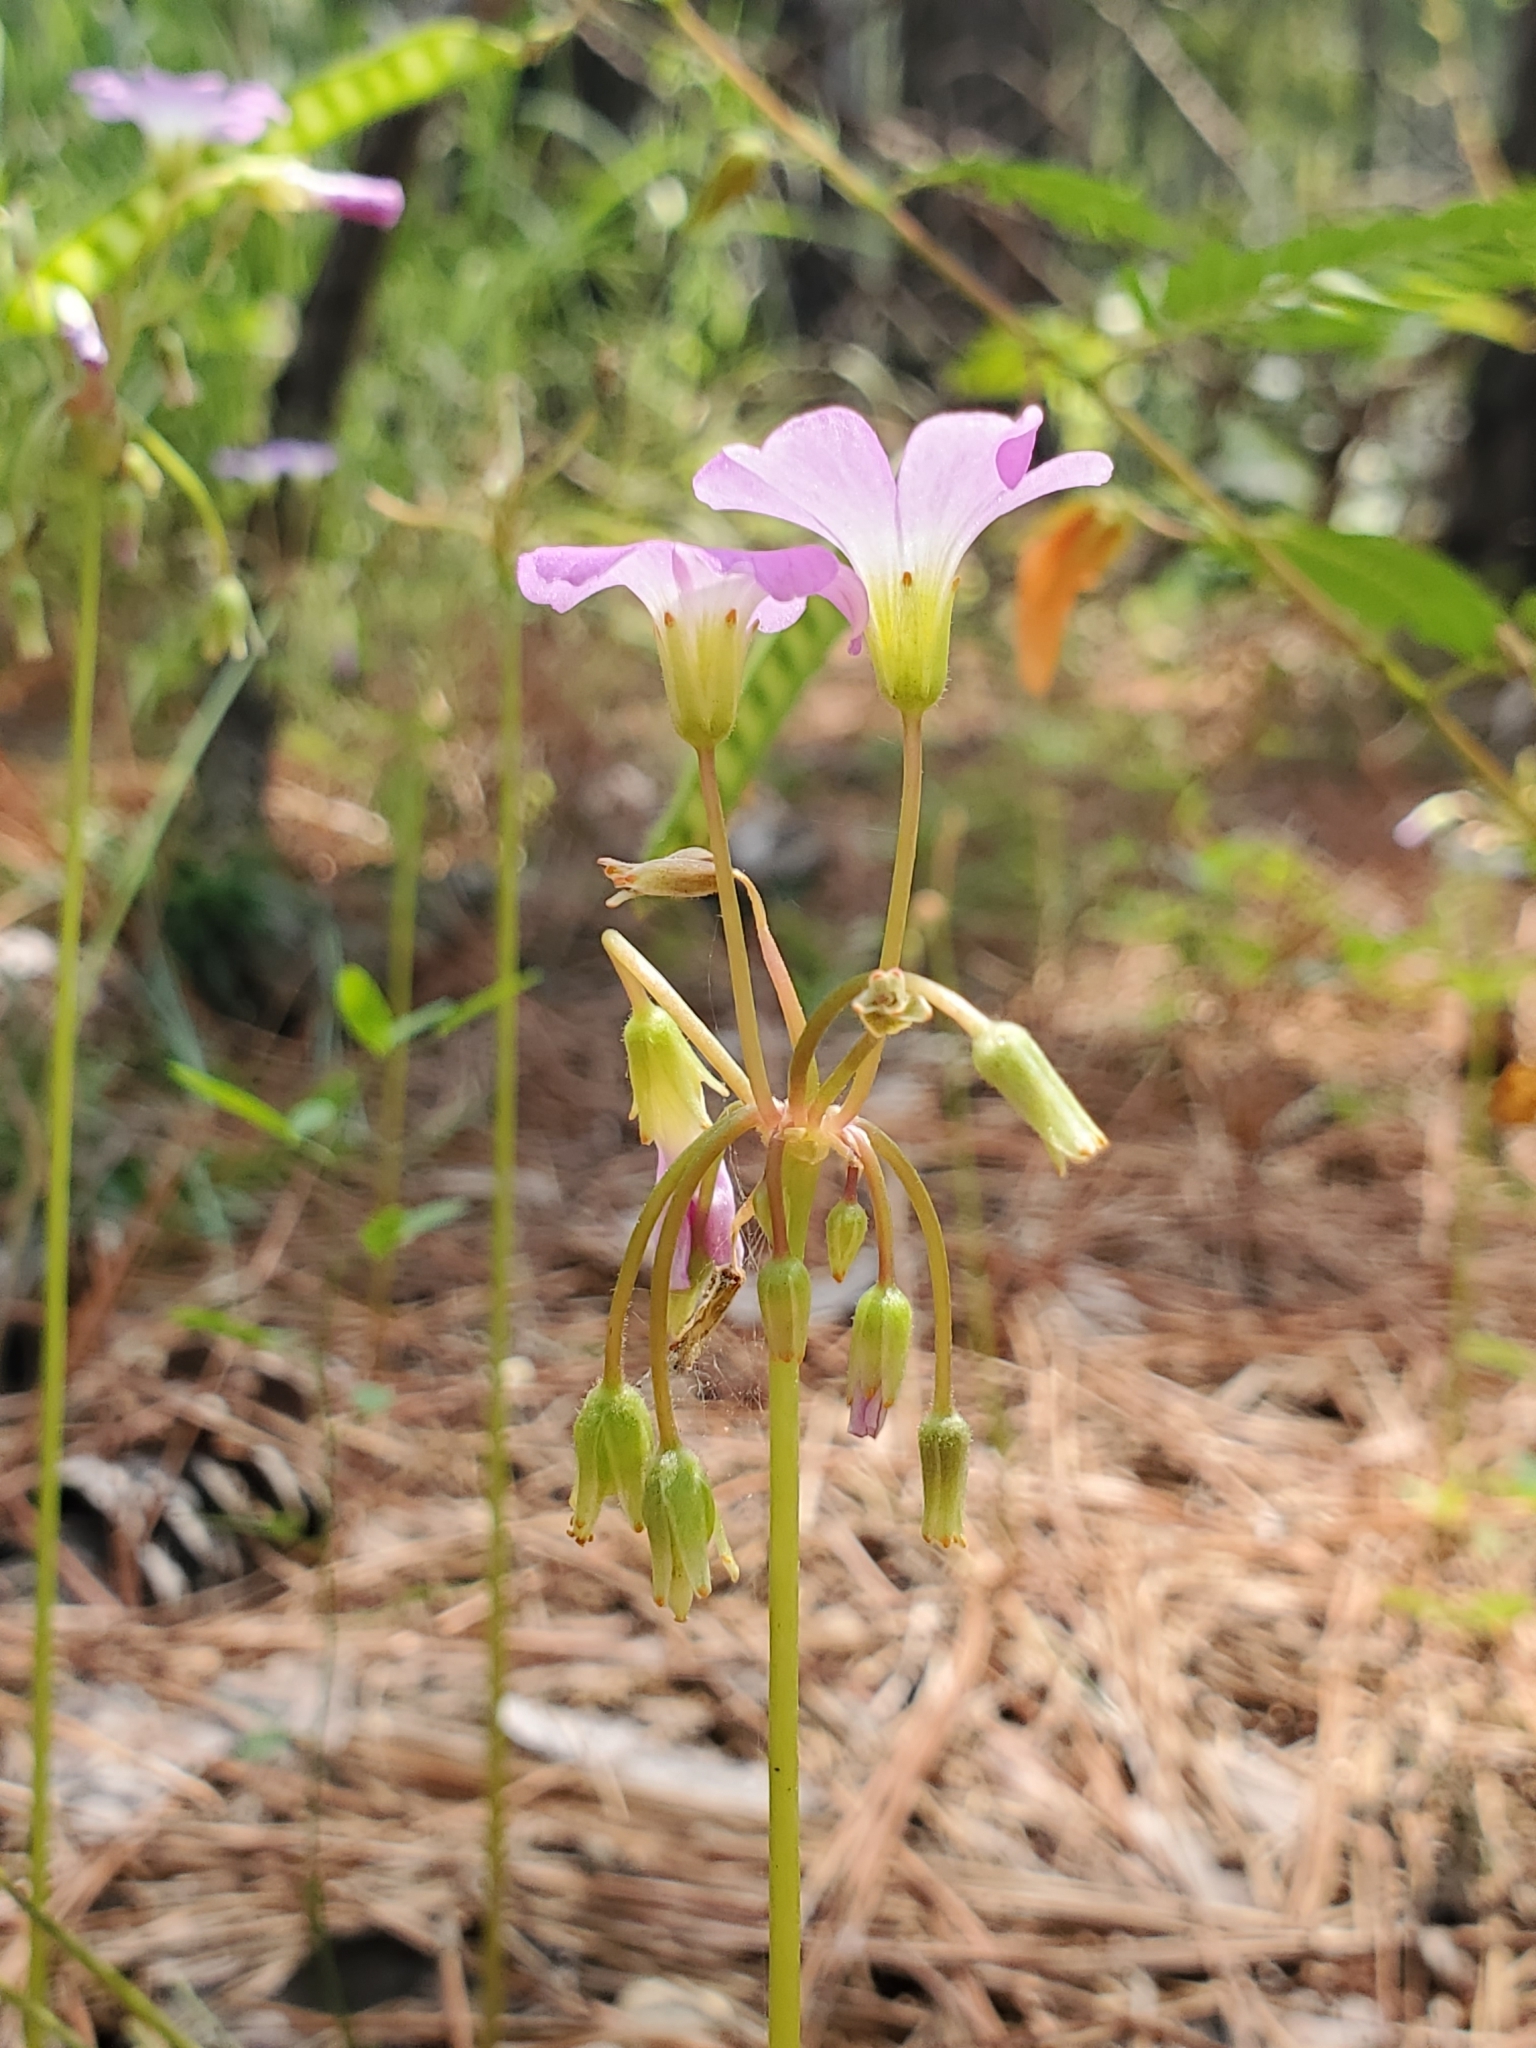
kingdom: Plantae
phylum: Tracheophyta
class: Magnoliopsida
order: Oxalidales
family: Oxalidaceae
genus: Oxalis
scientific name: Oxalis violacea
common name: Violet wood-sorrel
